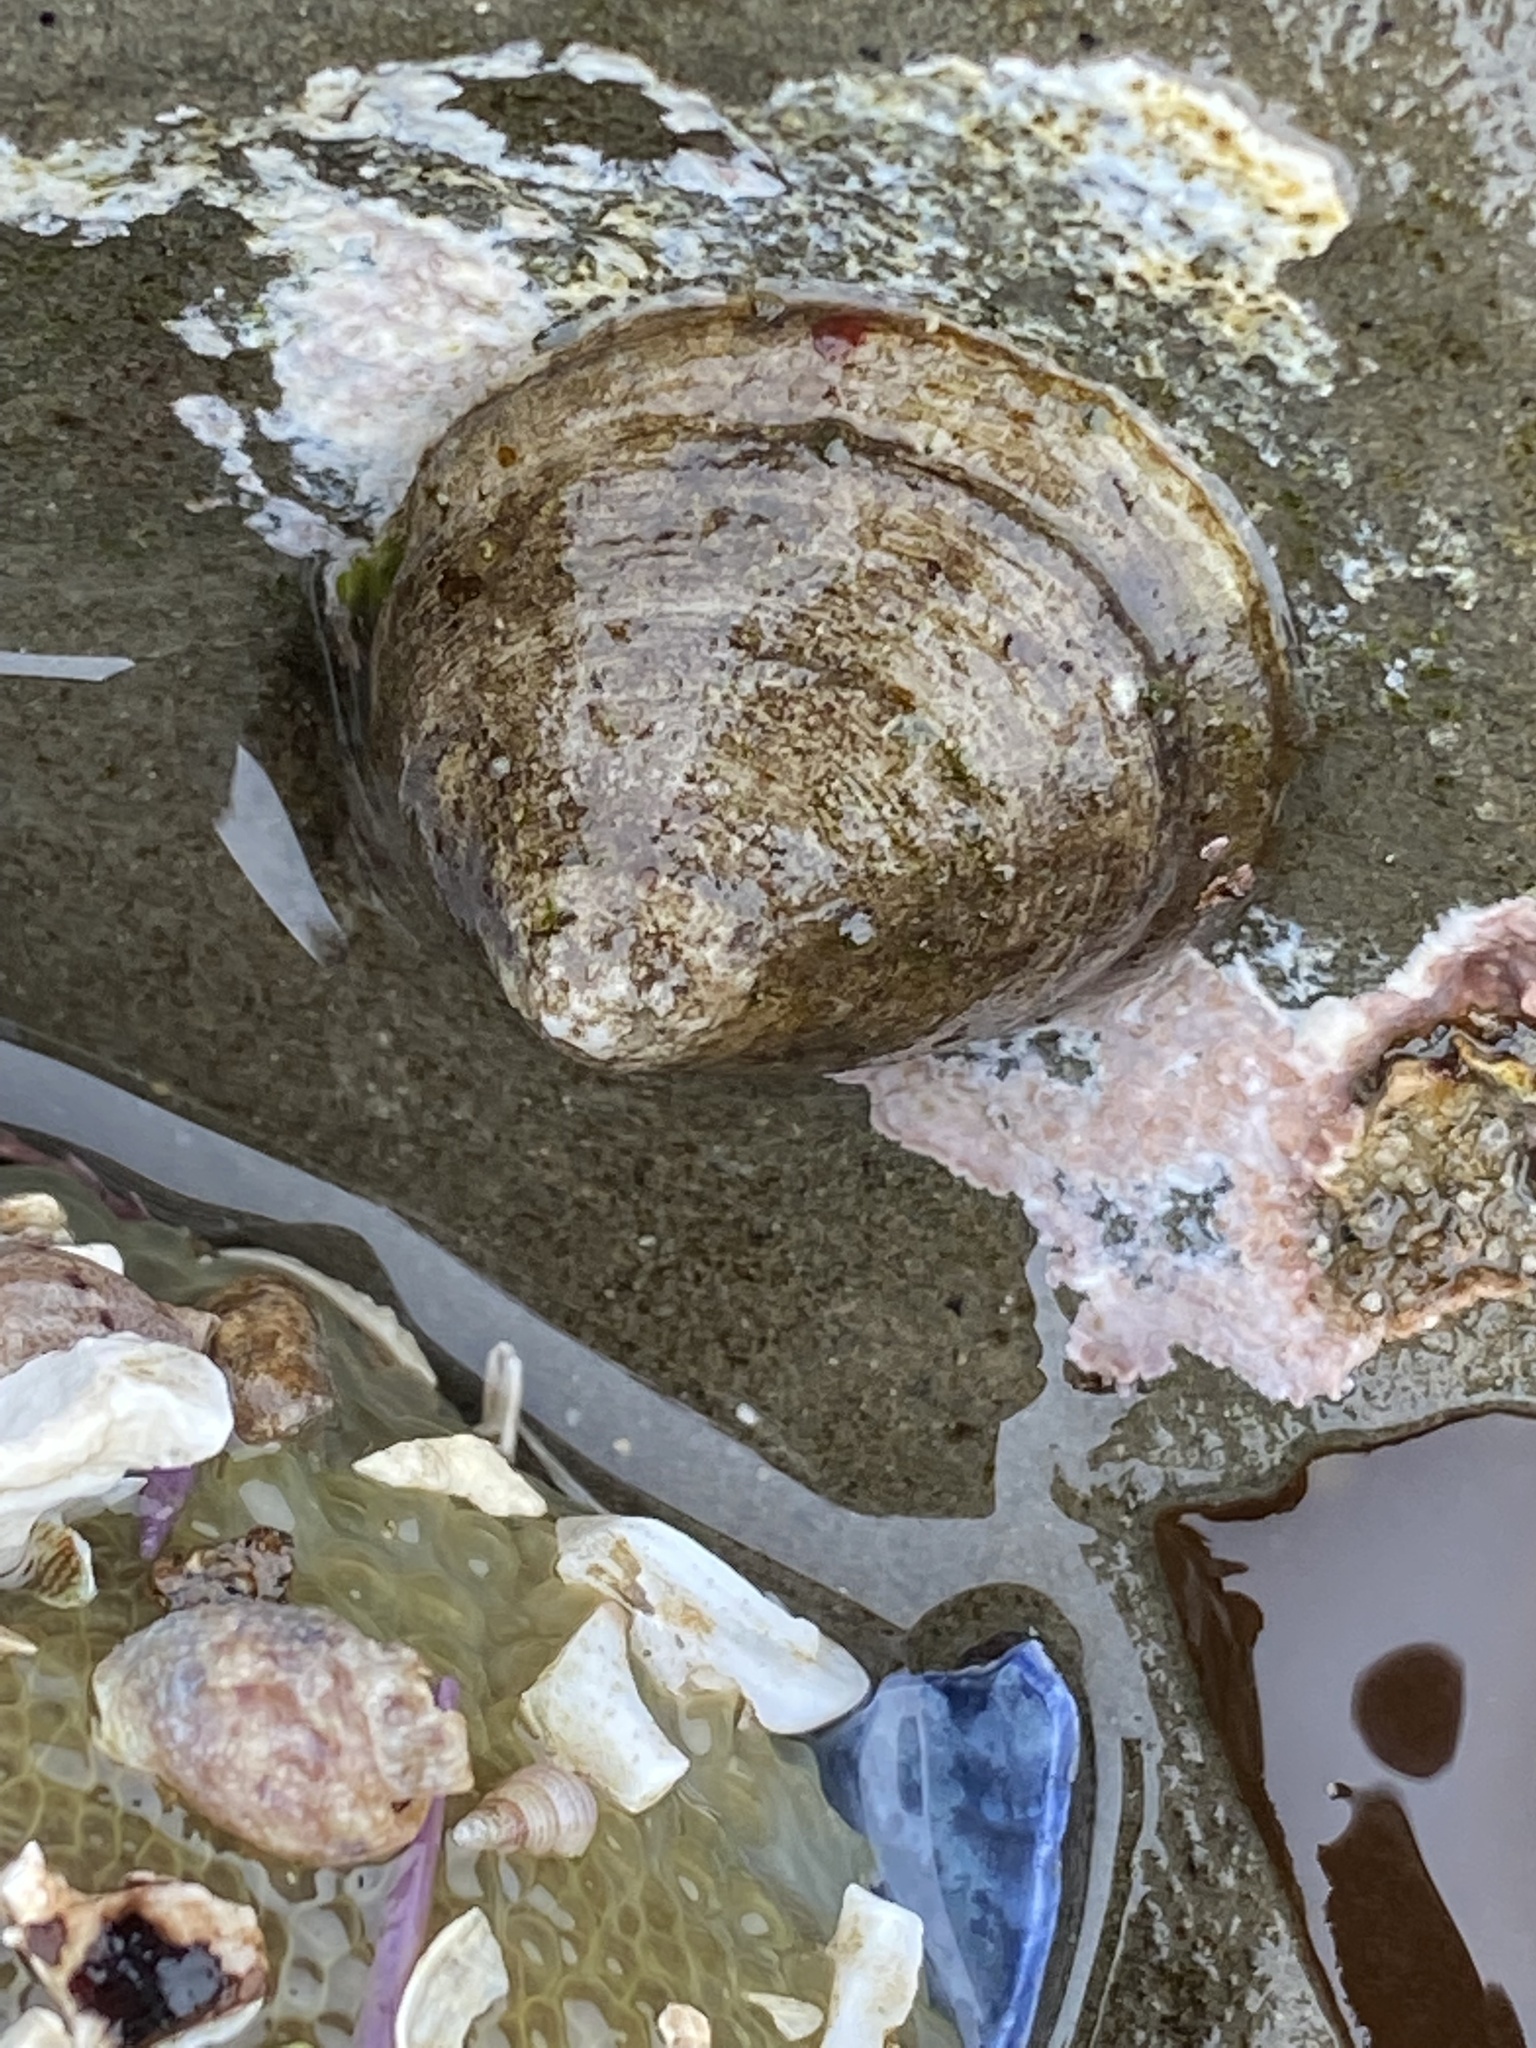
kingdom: Animalia
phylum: Mollusca
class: Gastropoda
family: Acmaeidae
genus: Acmaea
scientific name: Acmaea mitra
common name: Pacific white cap limpet
